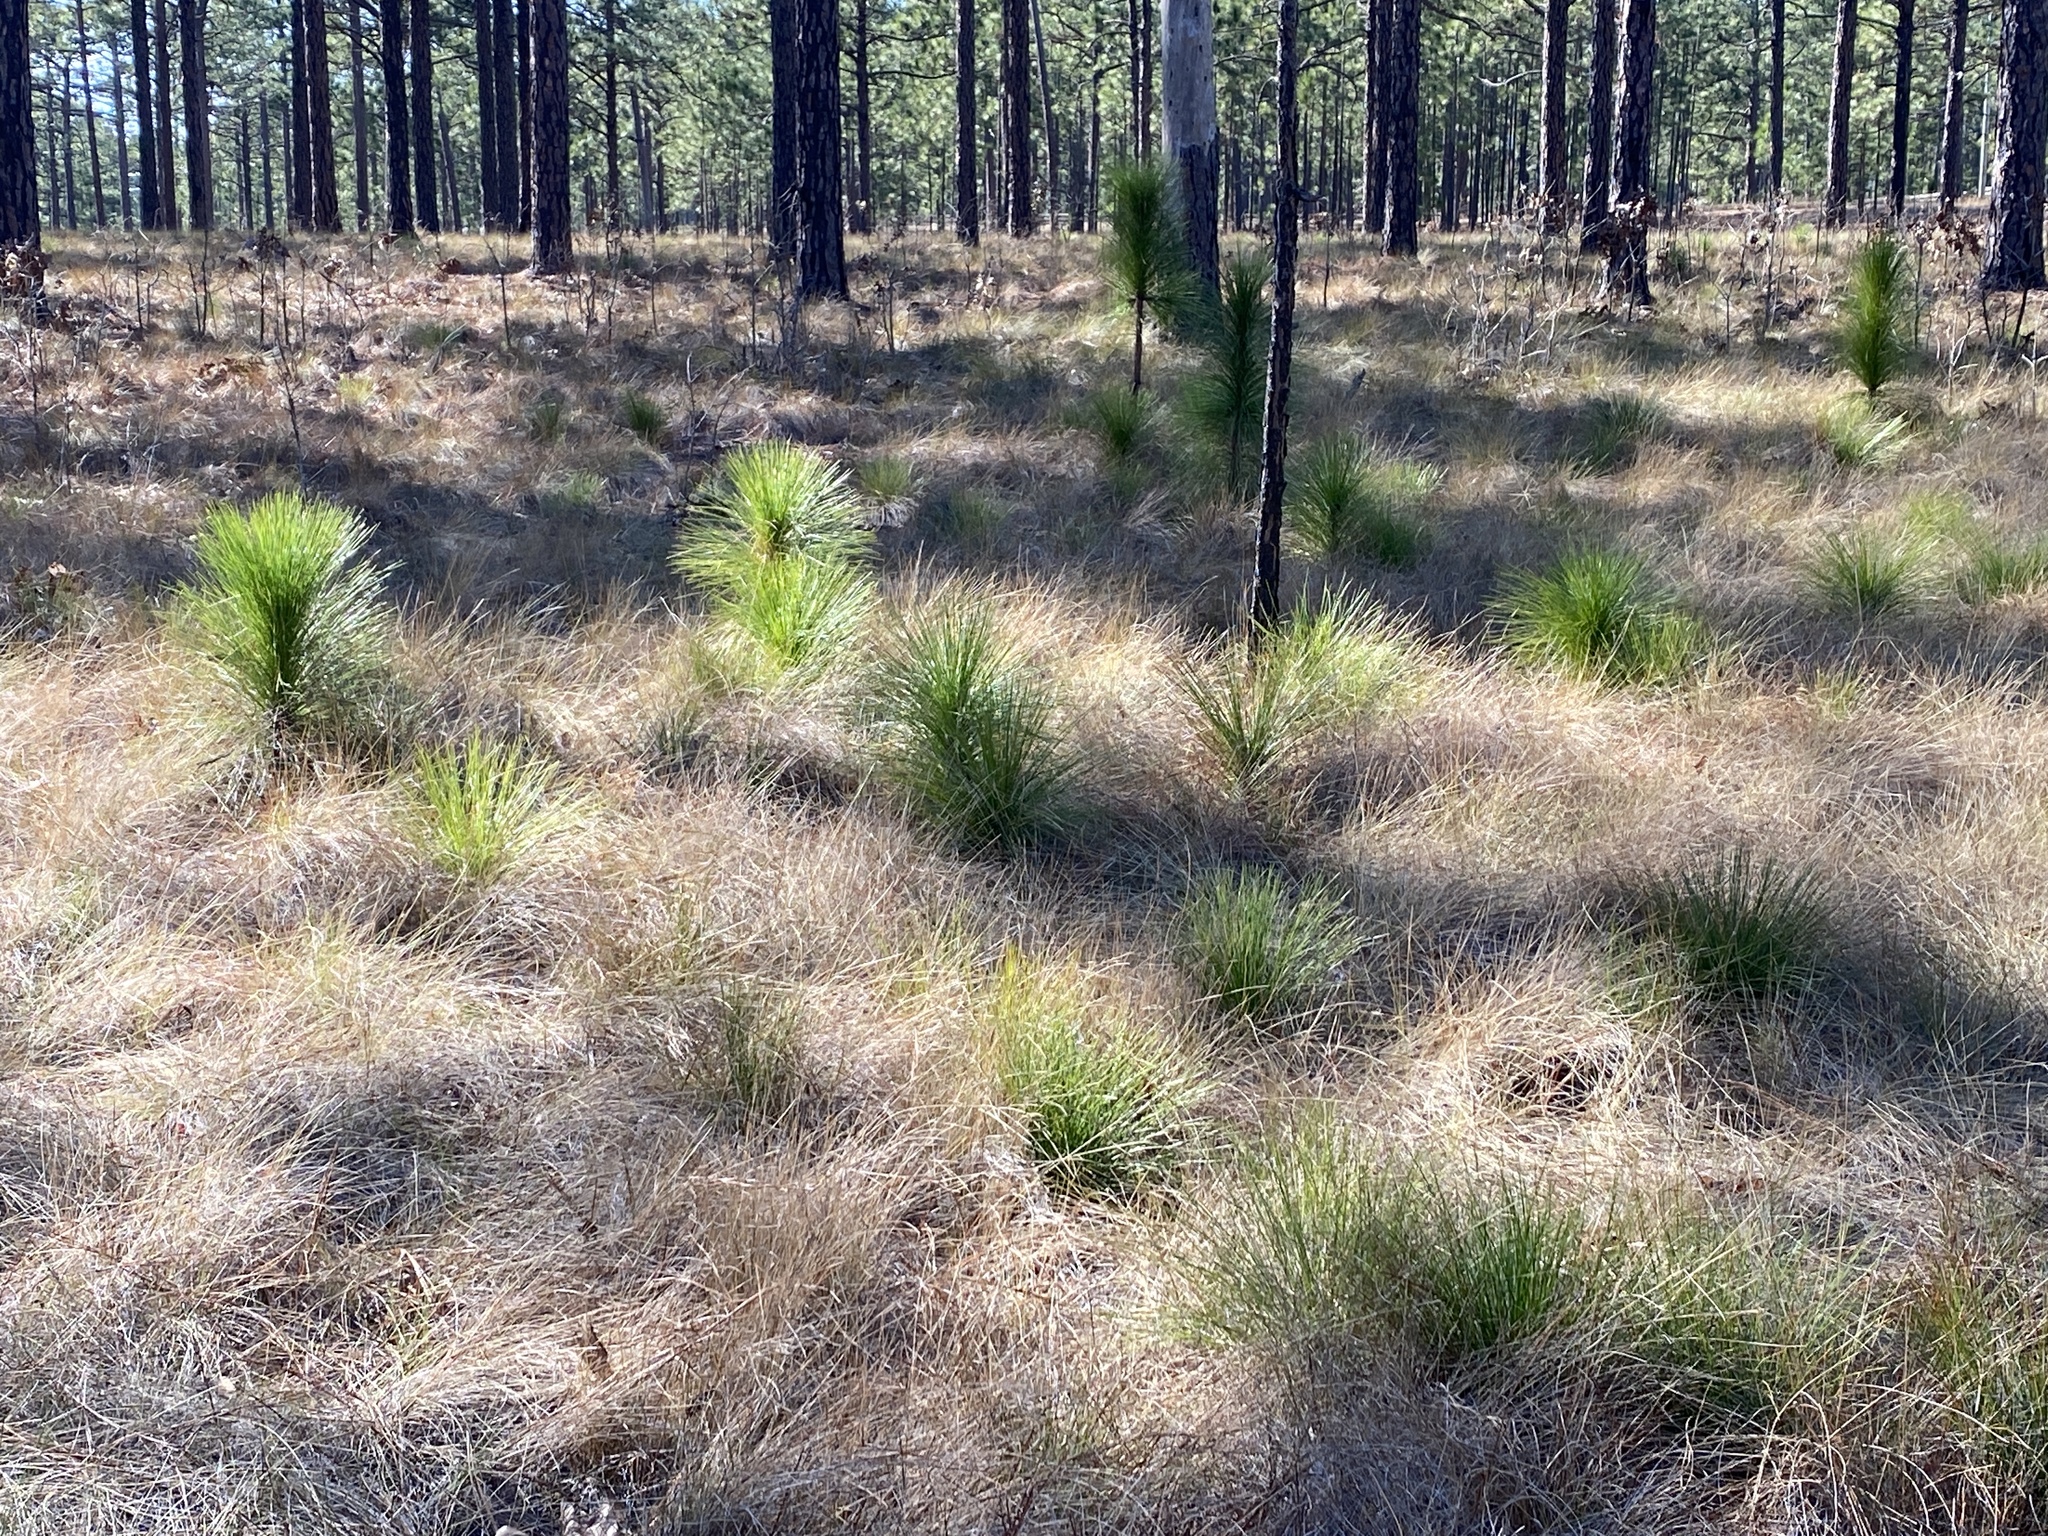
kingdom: Plantae
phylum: Tracheophyta
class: Pinopsida
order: Pinales
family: Pinaceae
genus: Pinus
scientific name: Pinus palustris
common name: Longleaf pine
